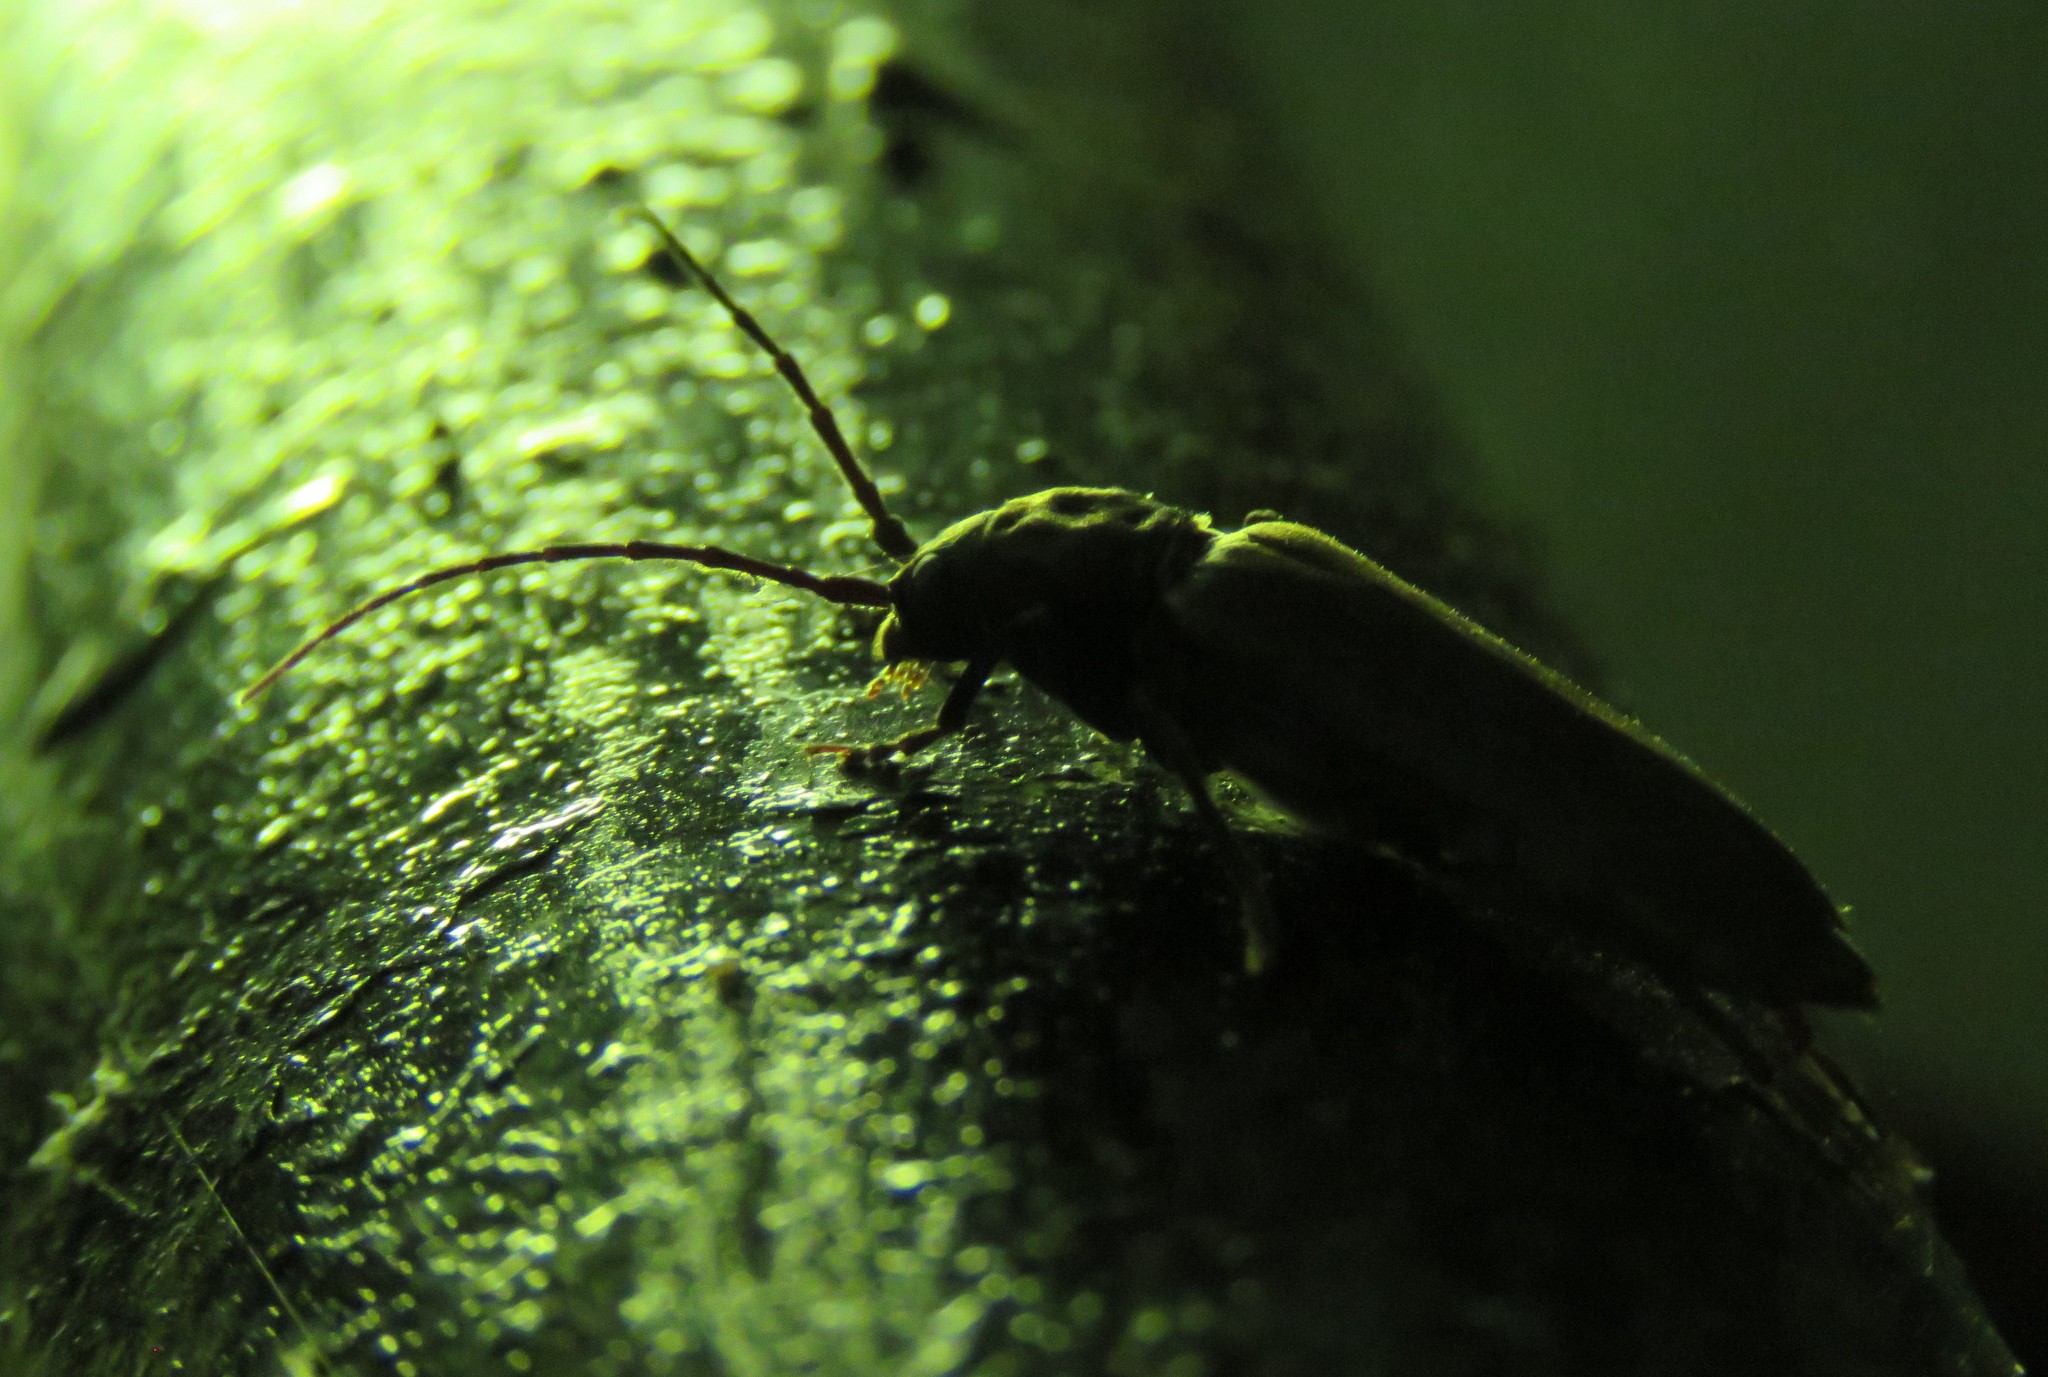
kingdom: Animalia
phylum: Arthropoda
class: Insecta
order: Coleoptera
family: Cerambycidae
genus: Arhopalus
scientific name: Arhopalus ferus
